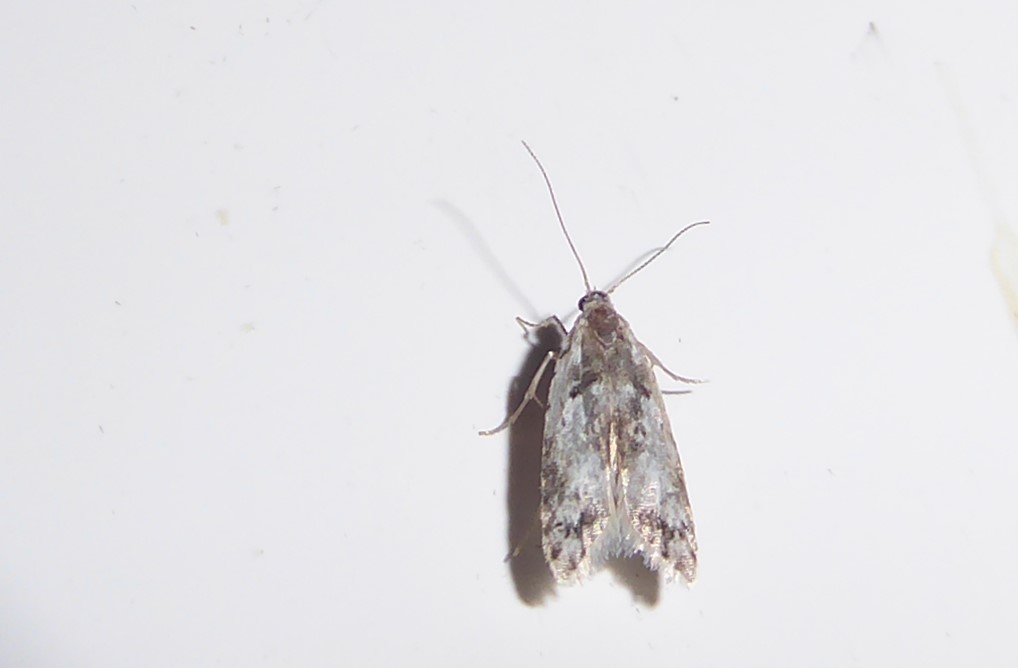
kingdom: Animalia
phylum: Arthropoda
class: Insecta
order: Lepidoptera
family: Carposinidae
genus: Carposina
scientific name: Carposina
